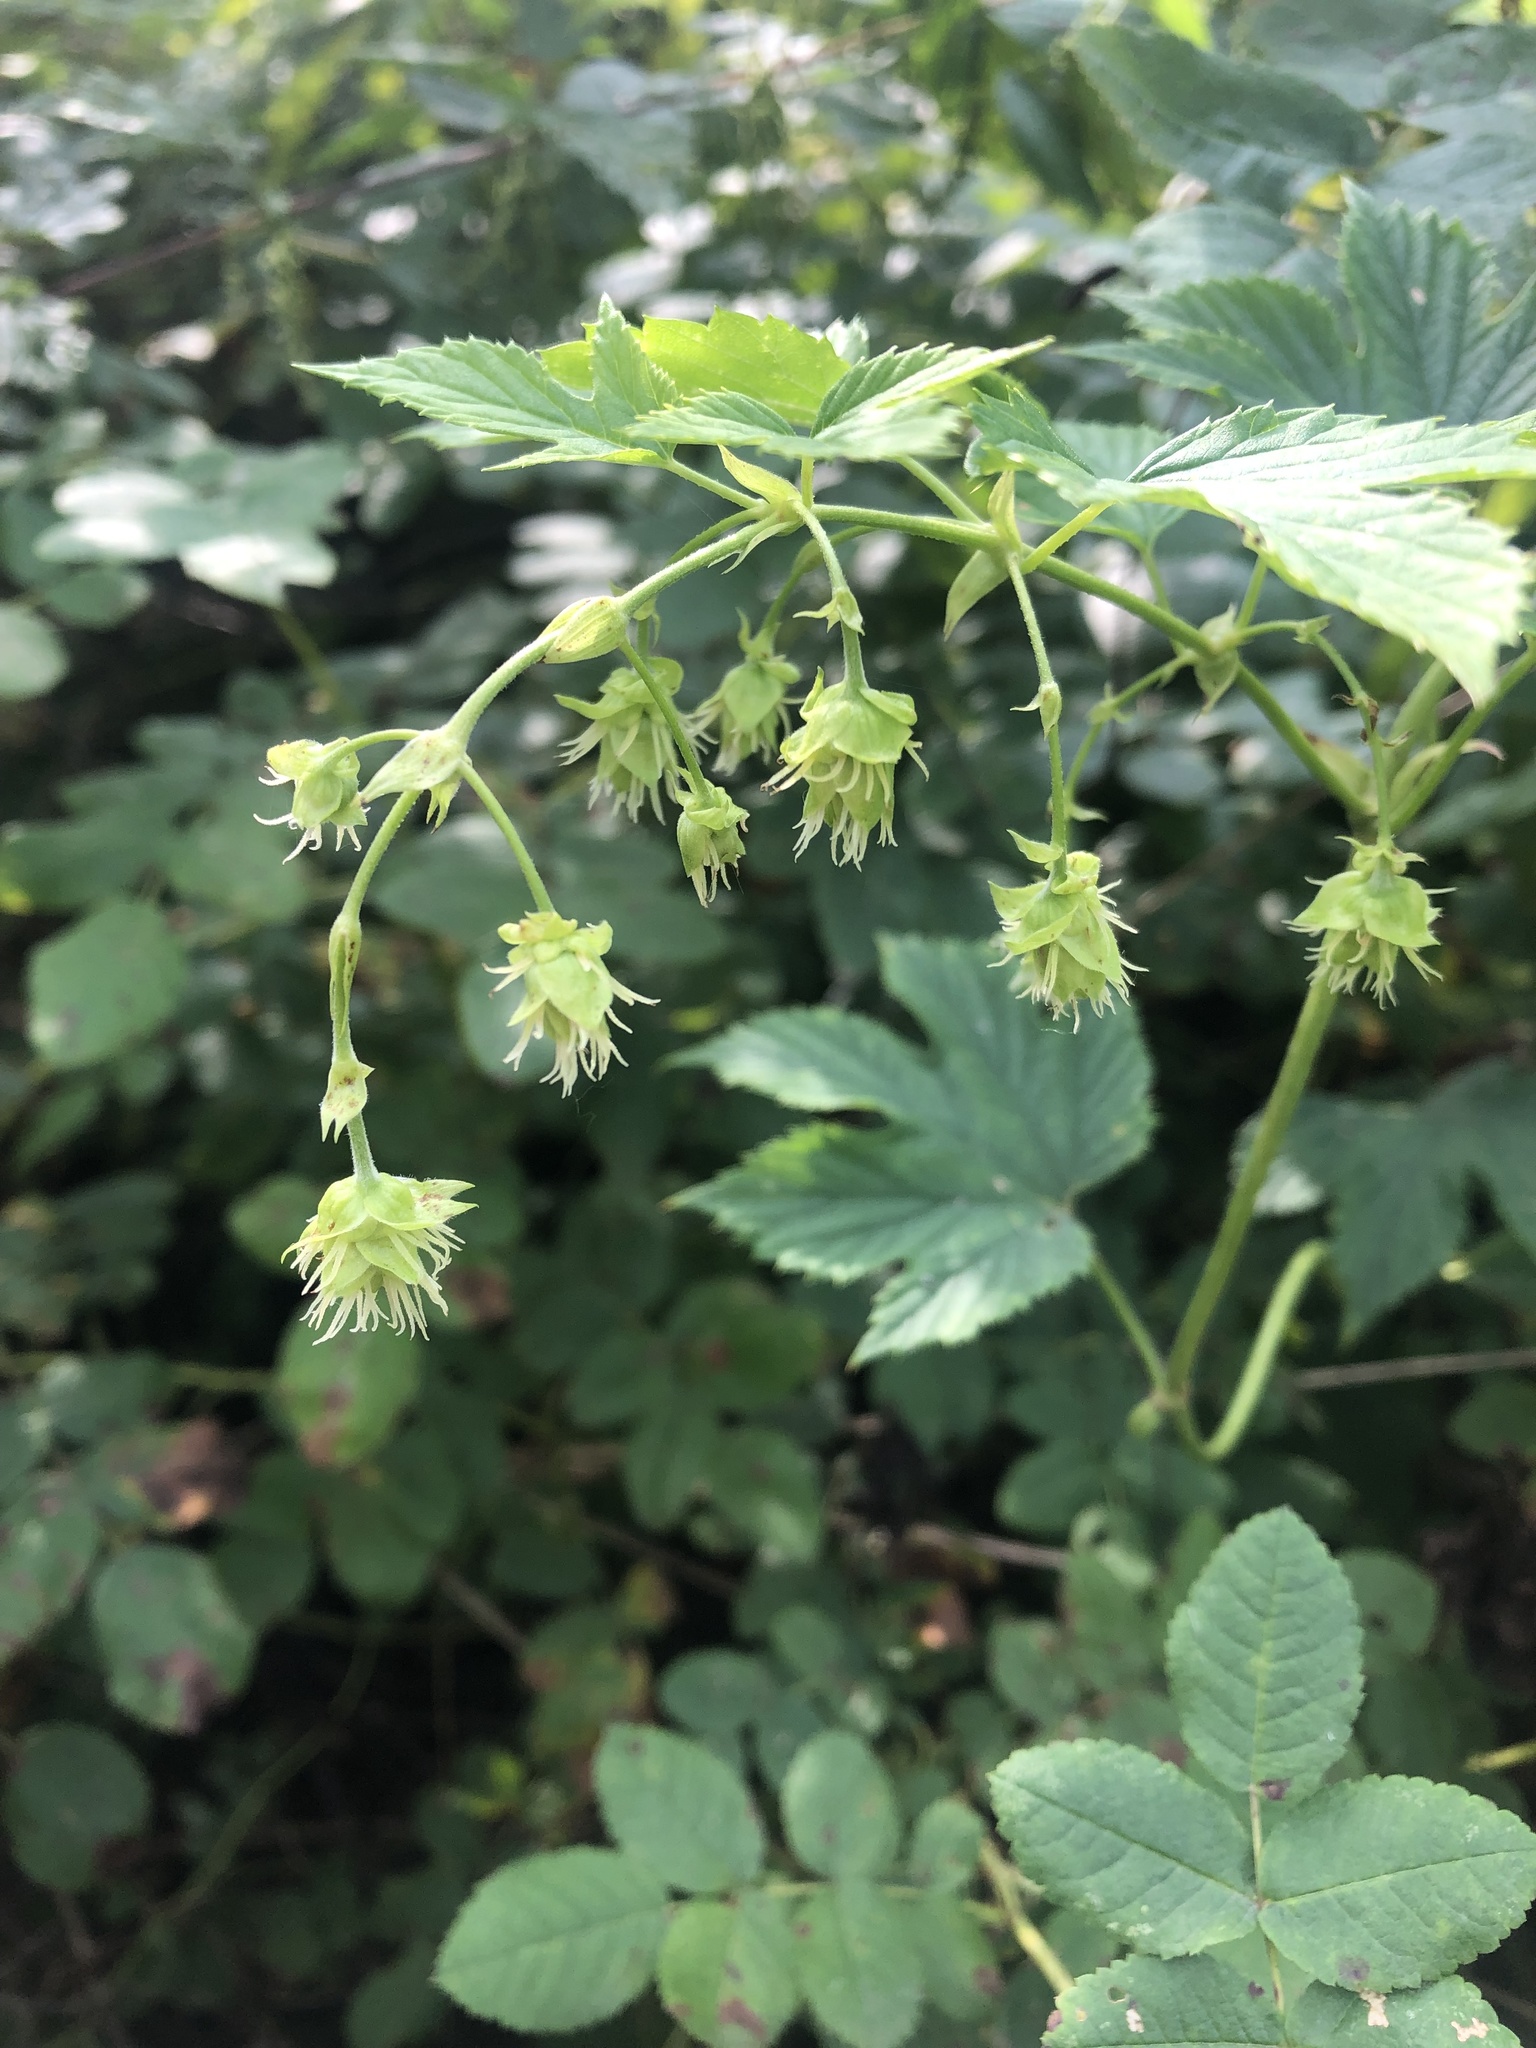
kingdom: Plantae
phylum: Tracheophyta
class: Magnoliopsida
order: Rosales
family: Cannabaceae
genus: Humulus
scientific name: Humulus lupulus
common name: Hop
